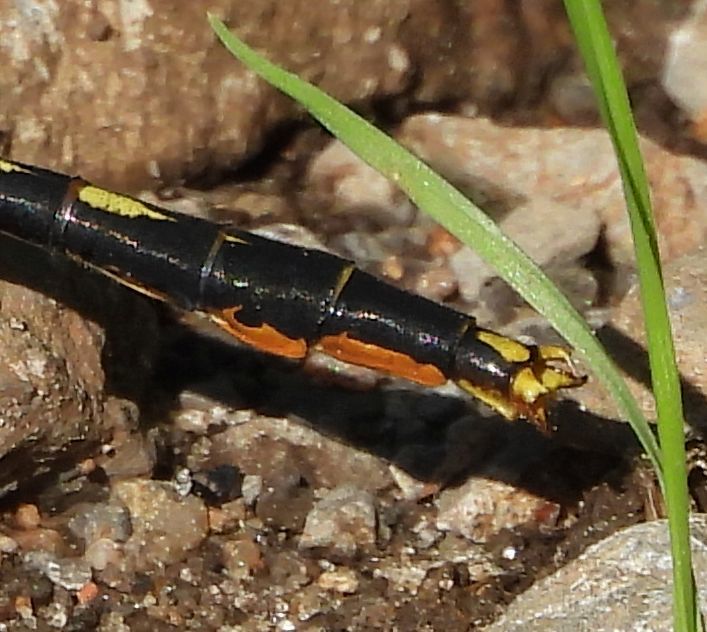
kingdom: Animalia
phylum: Arthropoda
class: Insecta
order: Odonata
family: Gomphidae
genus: Arigomphus
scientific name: Arigomphus furcifer
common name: Lilypad clubtail
